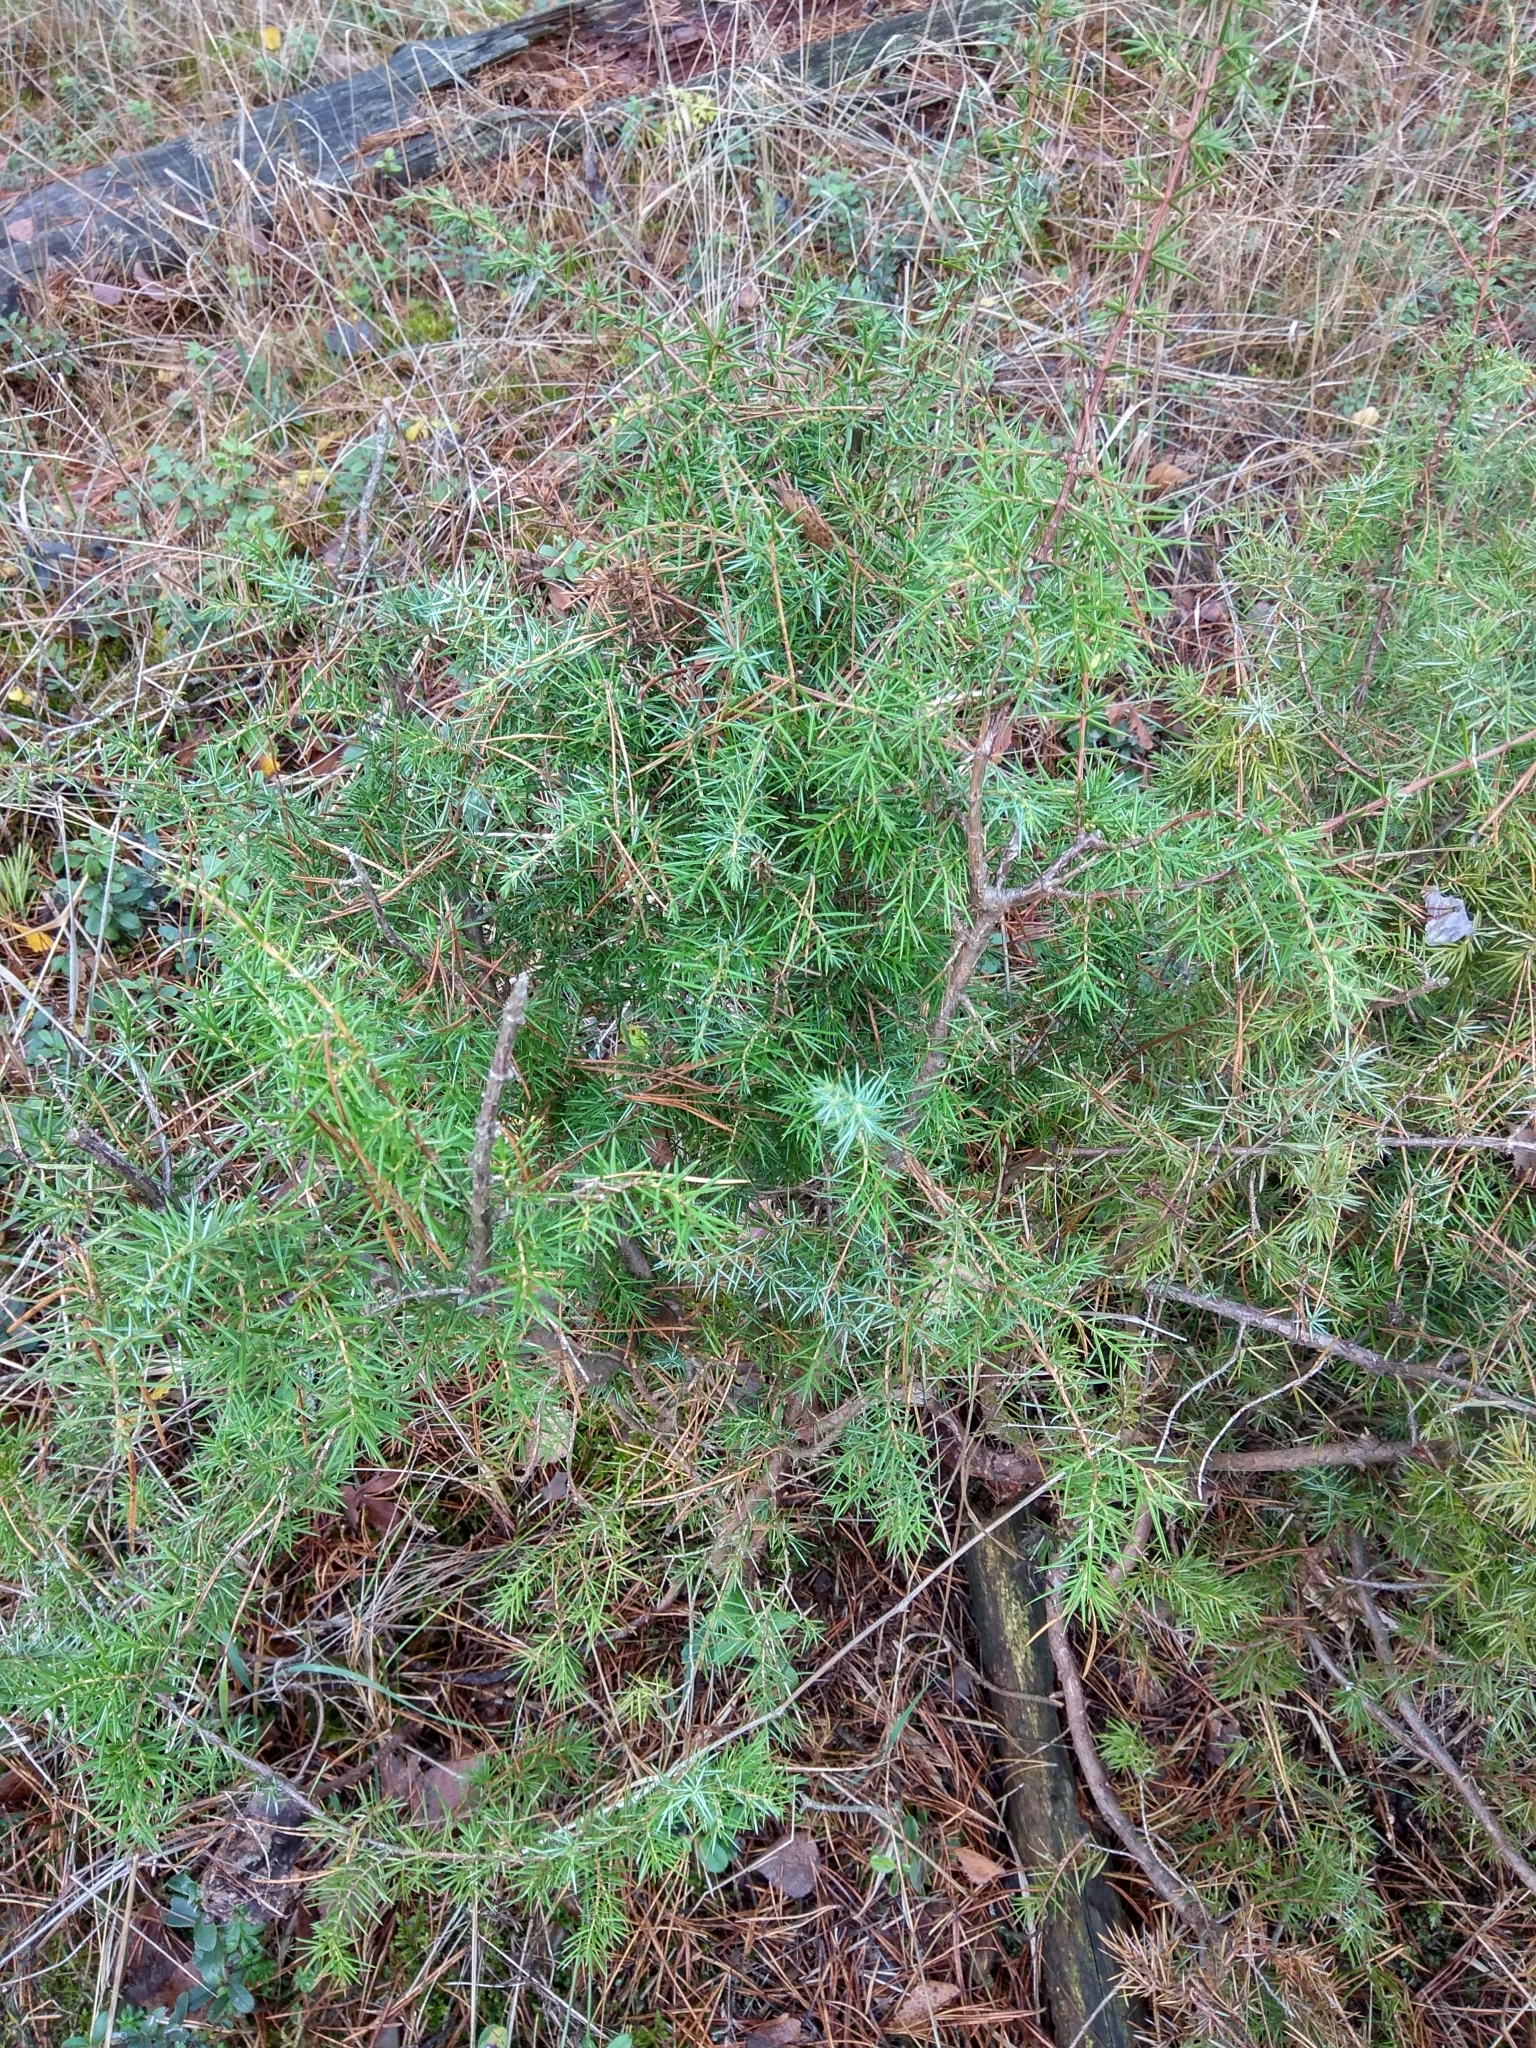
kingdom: Plantae
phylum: Tracheophyta
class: Pinopsida
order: Pinales
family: Cupressaceae
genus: Juniperus
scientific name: Juniperus communis
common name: Common juniper
